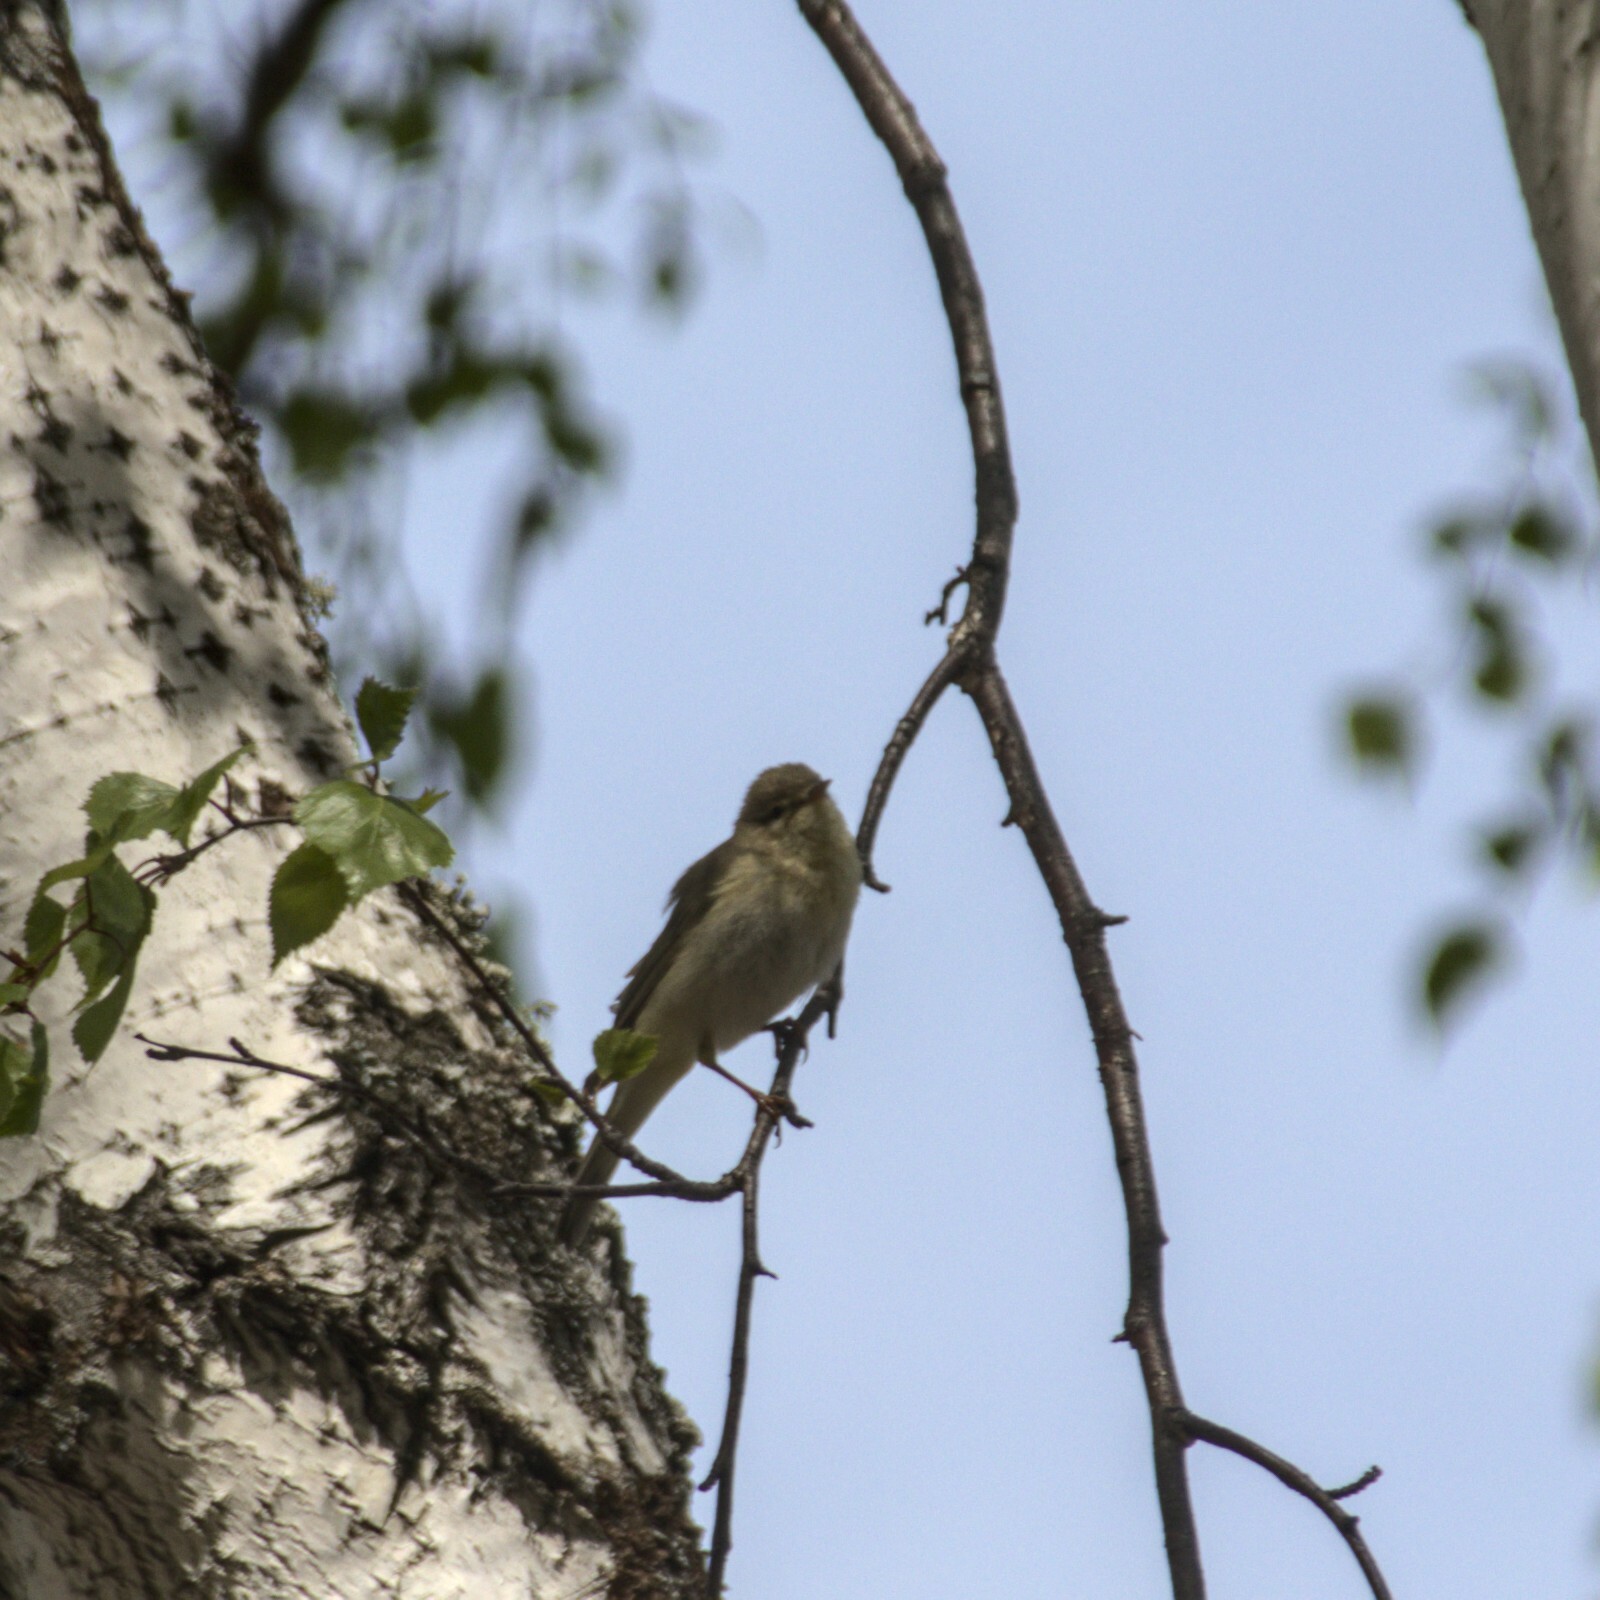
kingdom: Animalia
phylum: Chordata
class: Aves
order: Passeriformes
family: Phylloscopidae
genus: Phylloscopus
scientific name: Phylloscopus trochilus
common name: Willow warbler
